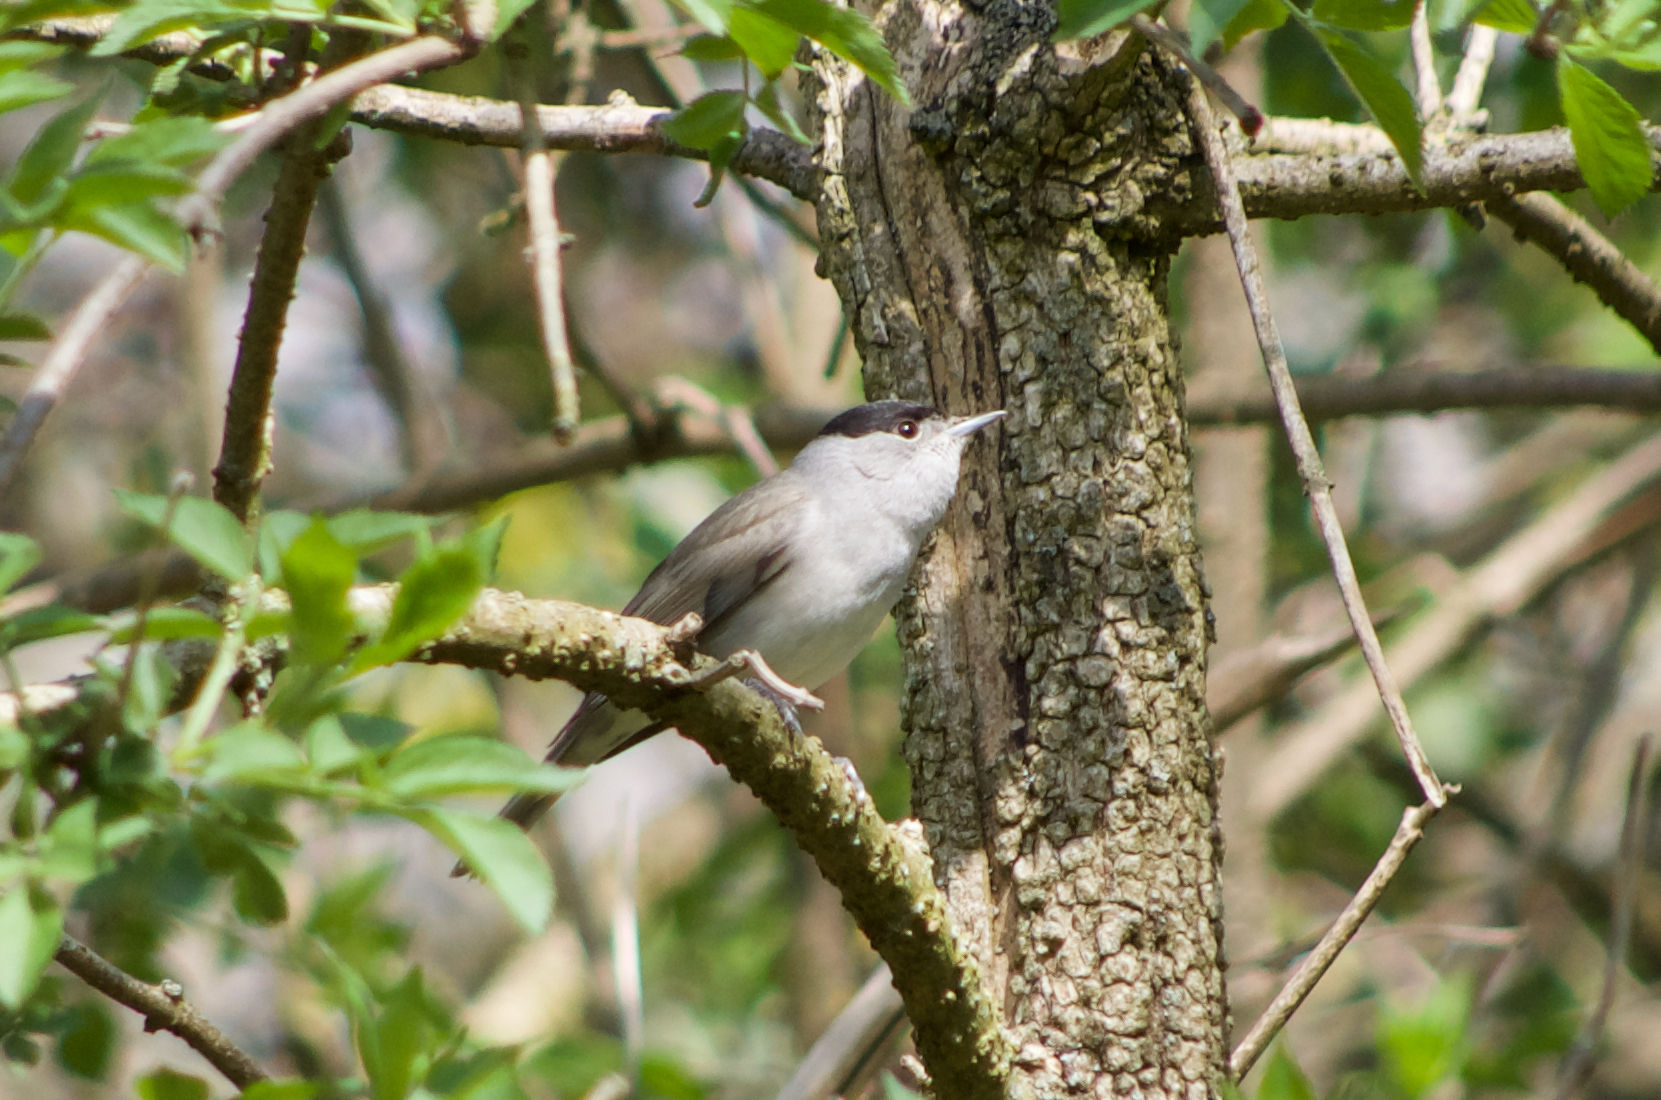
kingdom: Animalia
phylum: Chordata
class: Aves
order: Passeriformes
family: Sylviidae
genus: Sylvia
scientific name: Sylvia atricapilla
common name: Eurasian blackcap
